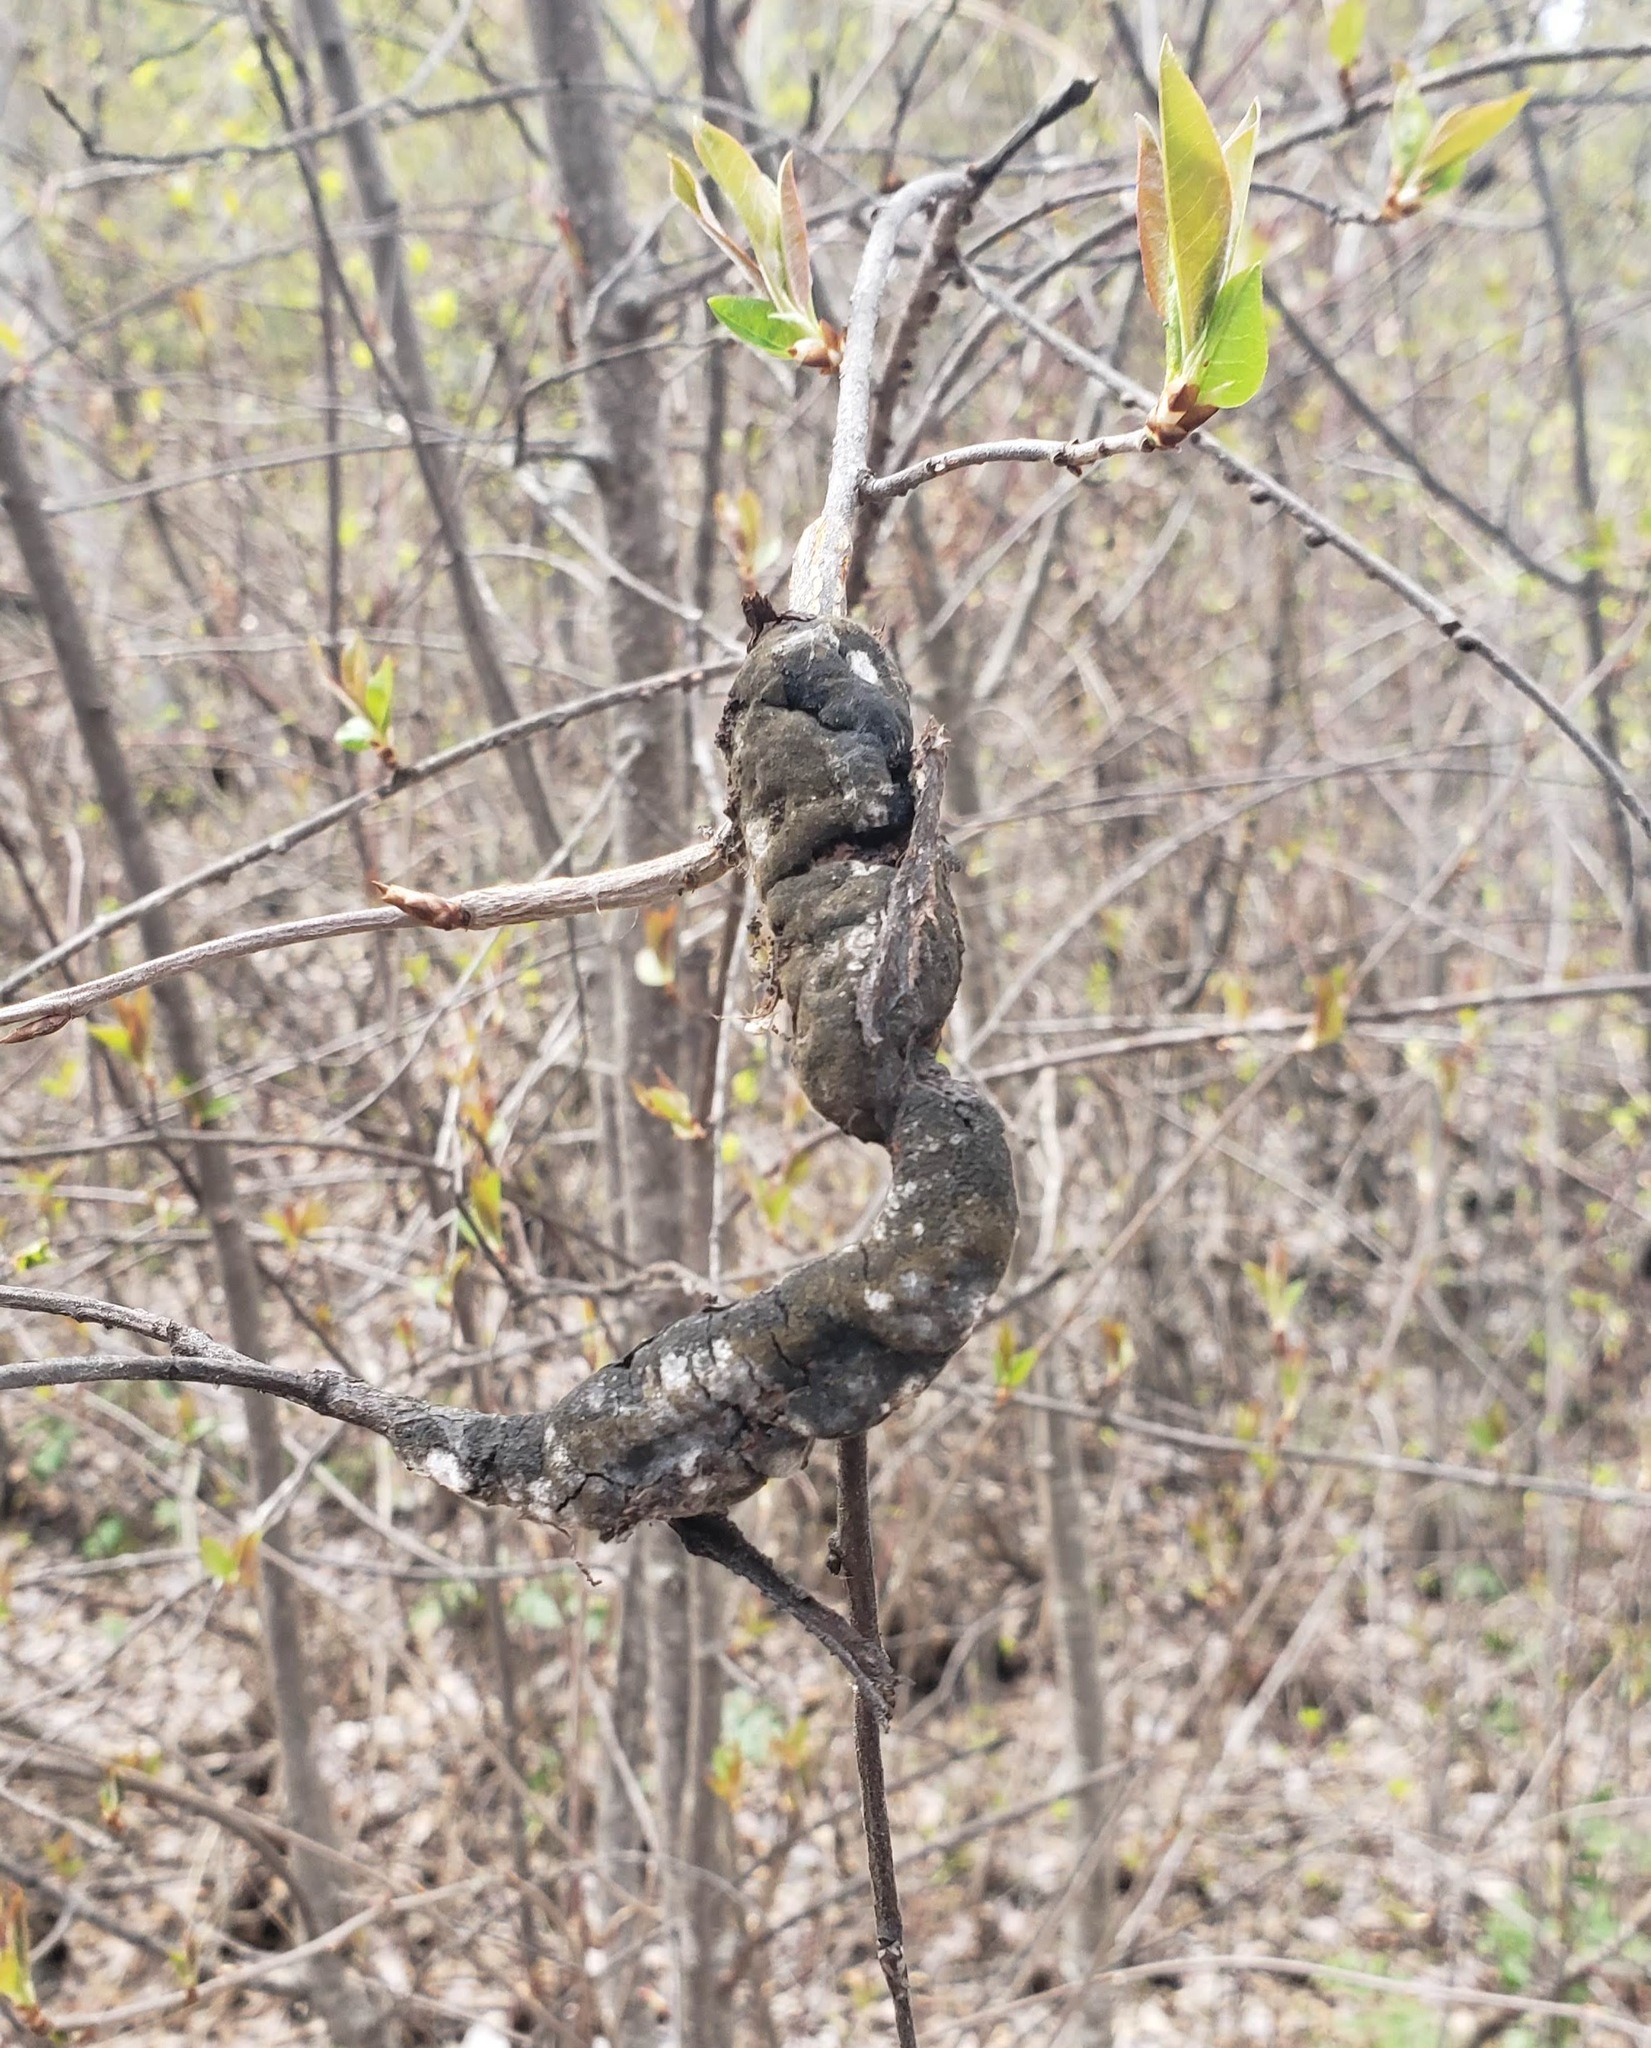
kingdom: Fungi
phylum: Ascomycota
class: Dothideomycetes
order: Venturiales
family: Venturiaceae
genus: Apiosporina
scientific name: Apiosporina morbosa
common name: Black knot
